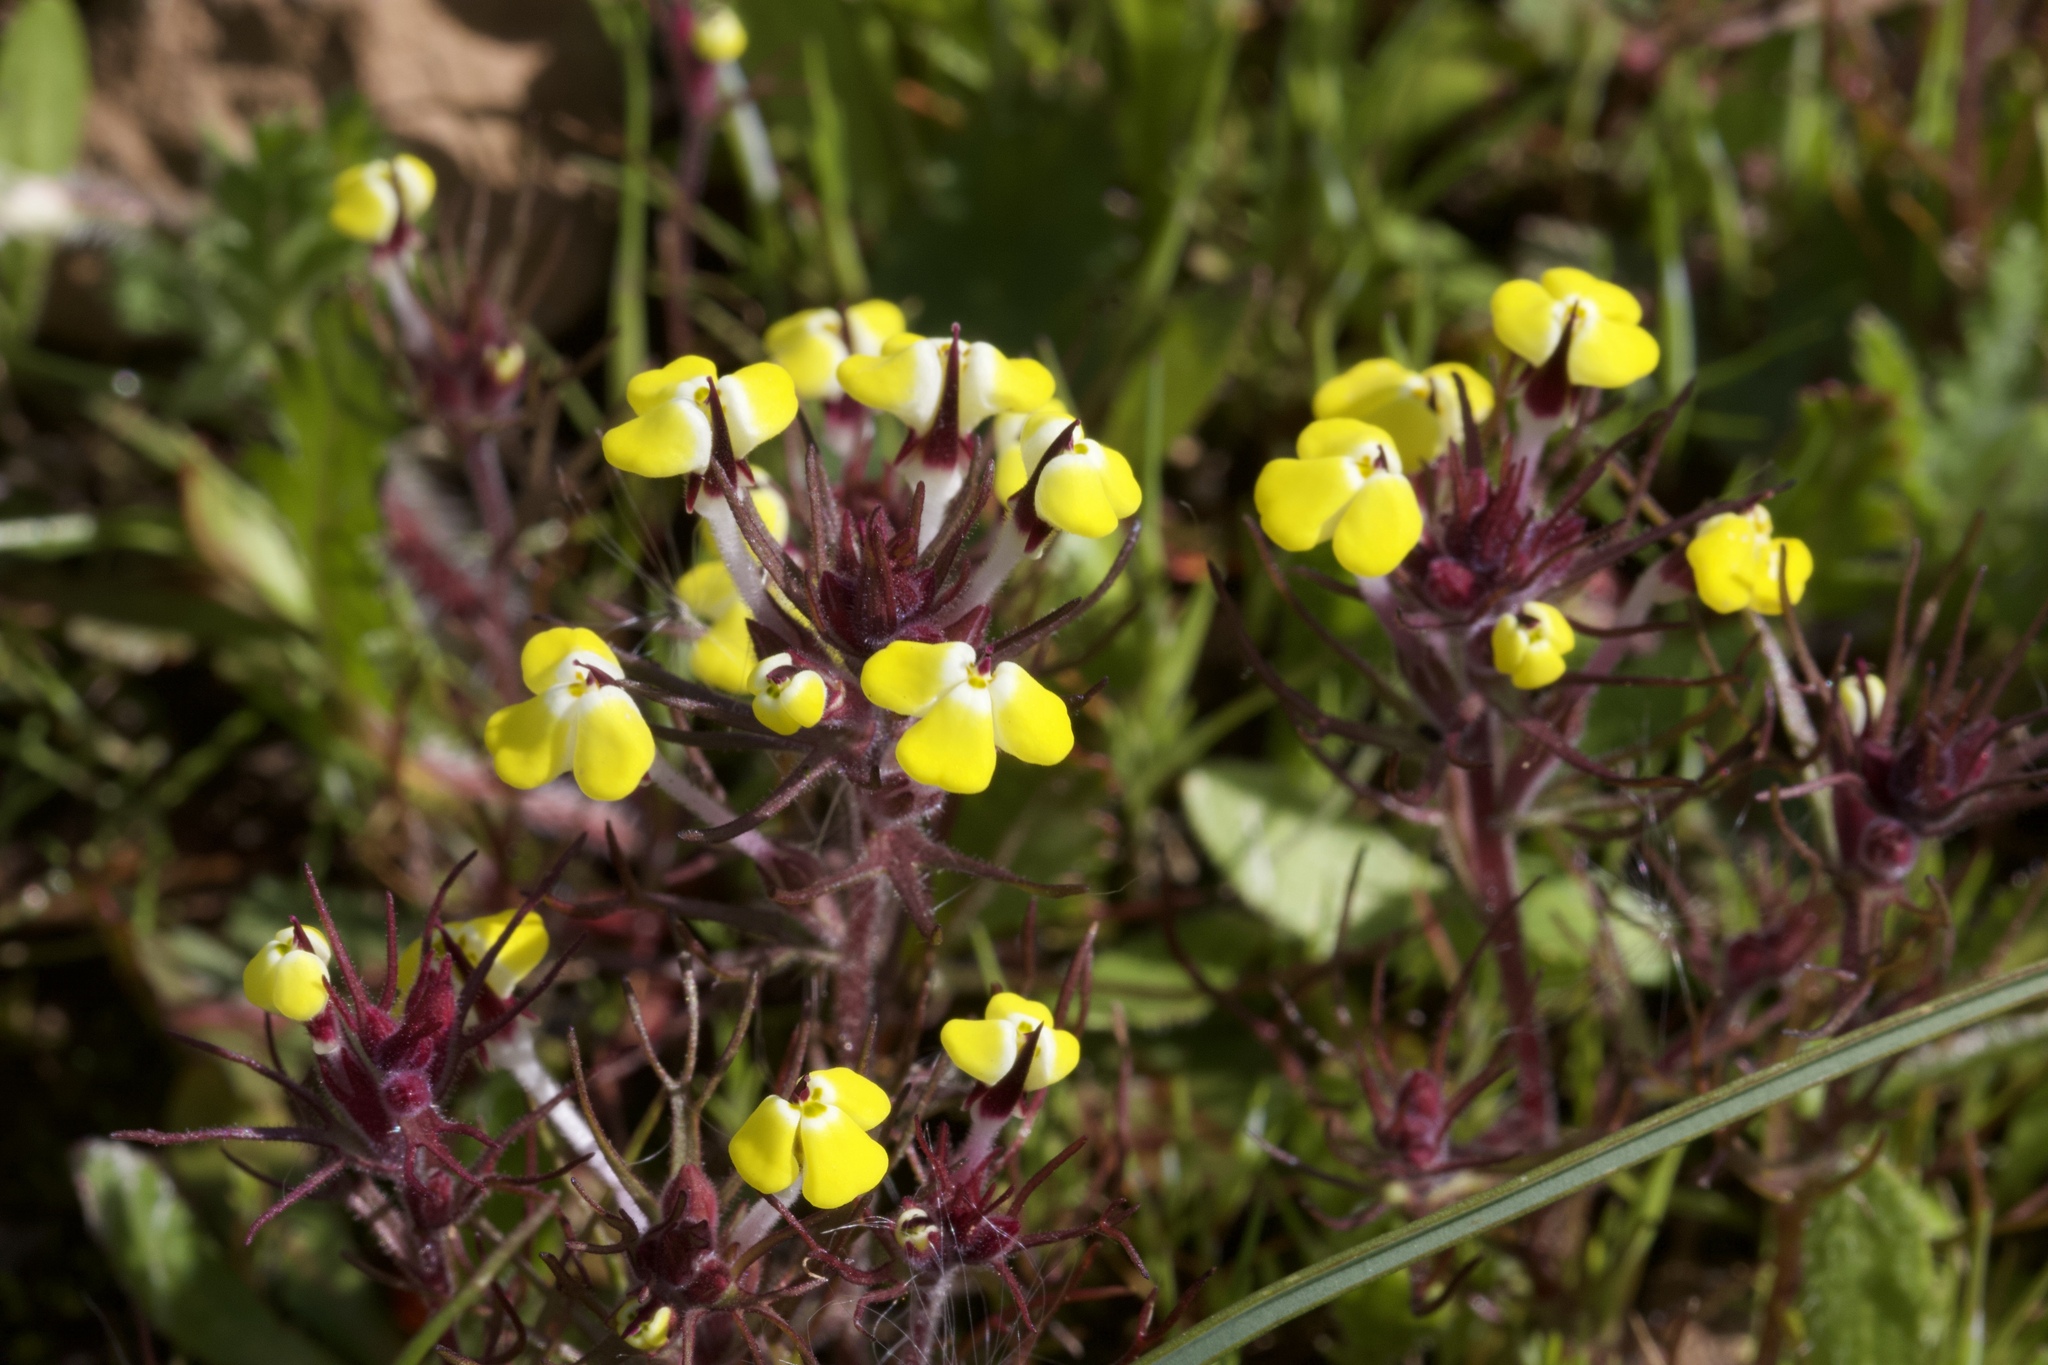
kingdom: Plantae
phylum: Tracheophyta
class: Magnoliopsida
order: Lamiales
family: Orobanchaceae
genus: Triphysaria
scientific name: Triphysaria eriantha
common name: Johnny-tuck
